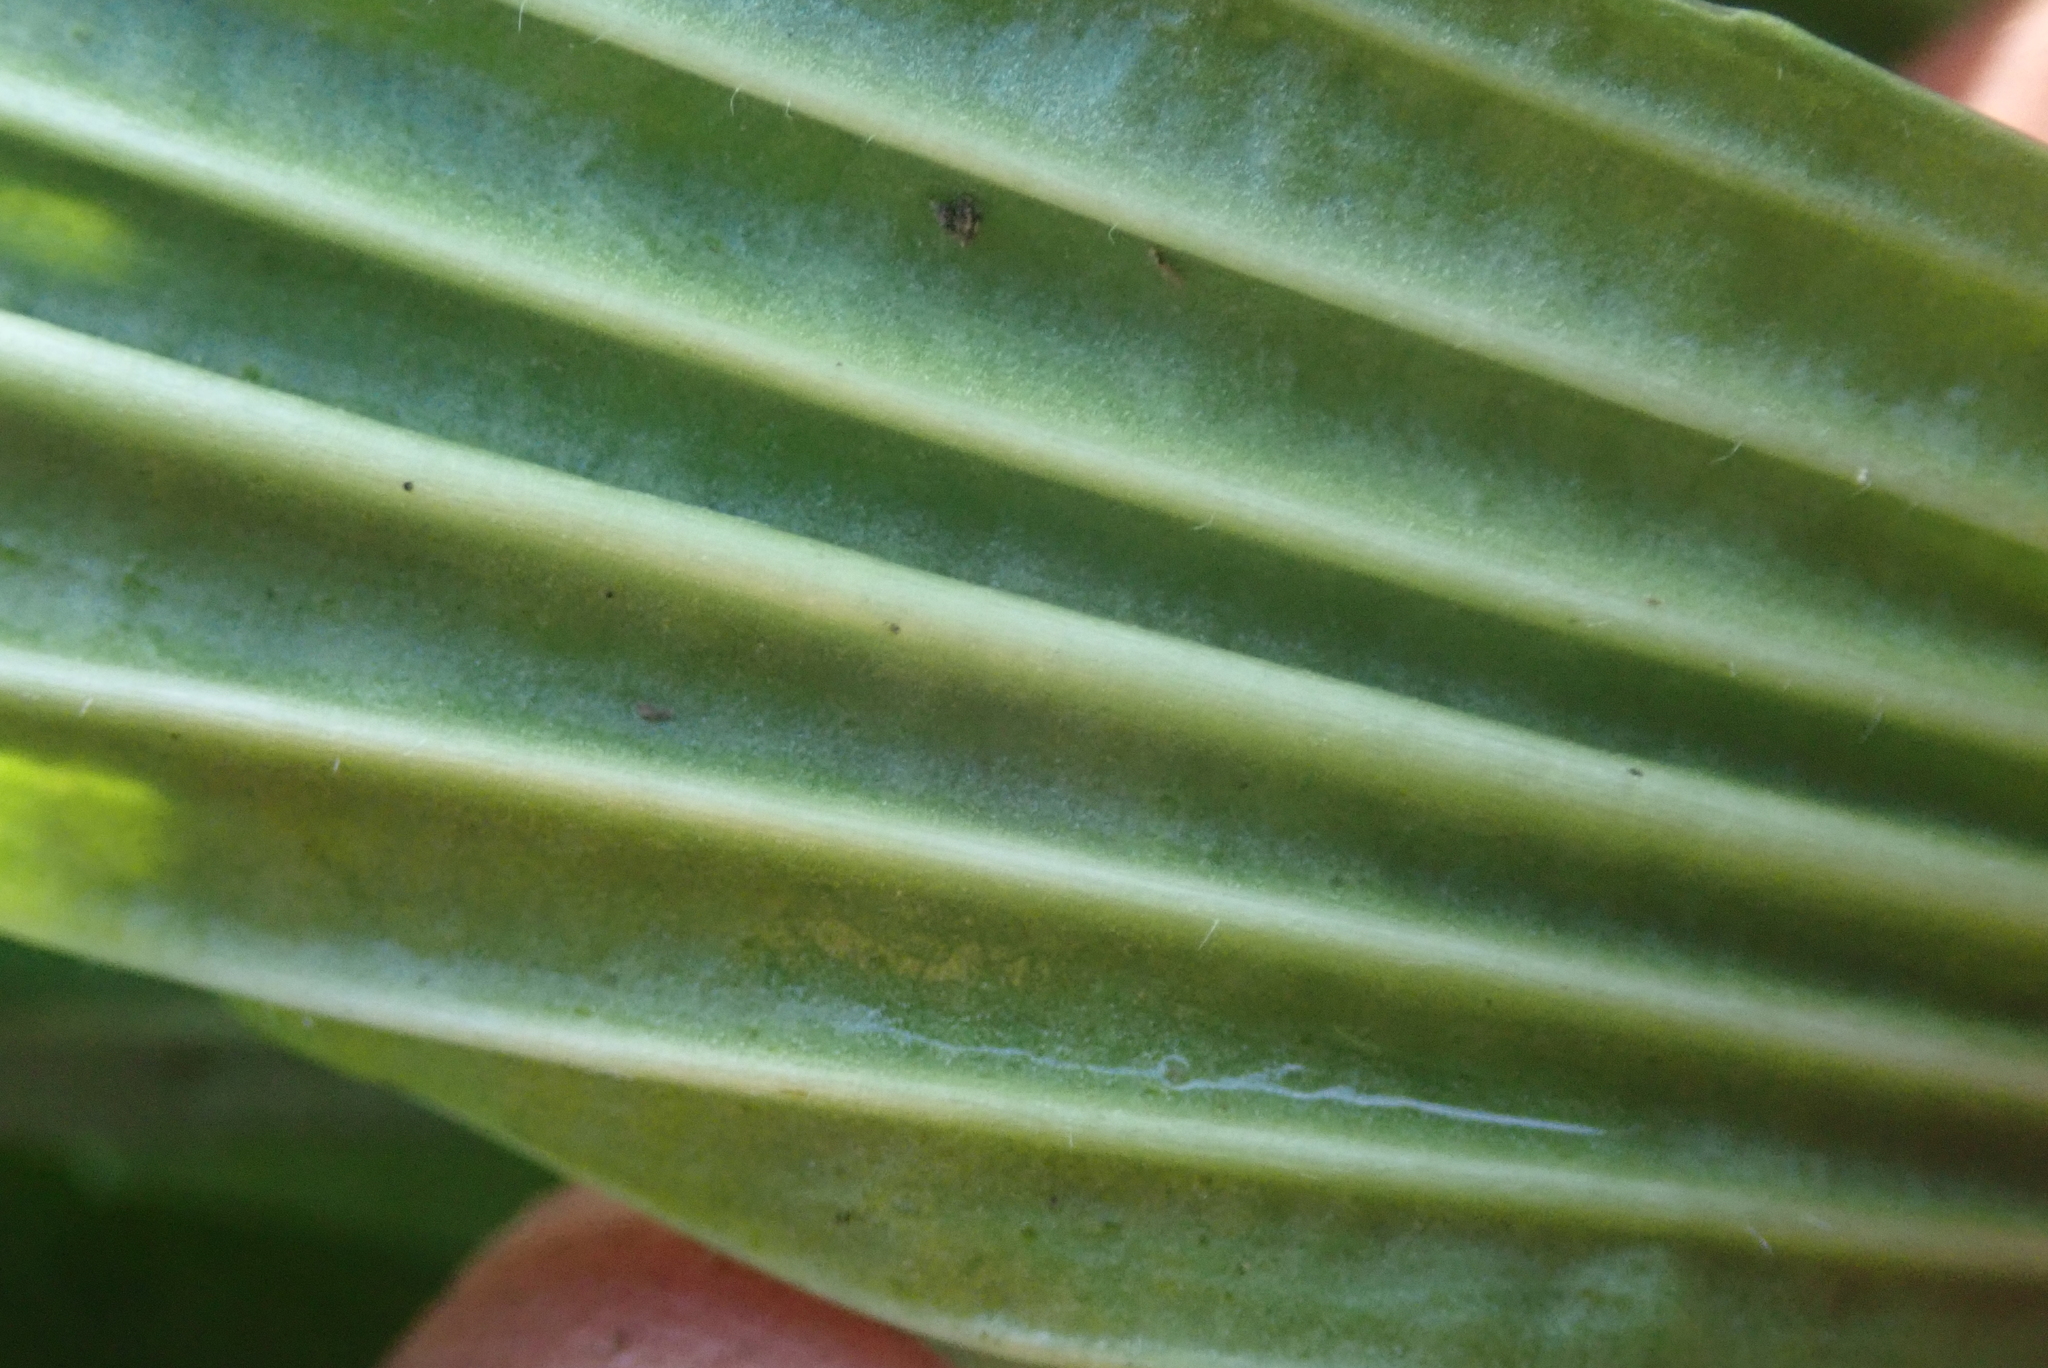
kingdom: Plantae
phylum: Tracheophyta
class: Magnoliopsida
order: Lamiales
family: Plantaginaceae
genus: Plantago
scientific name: Plantago lanceolata
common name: Ribwort plantain
